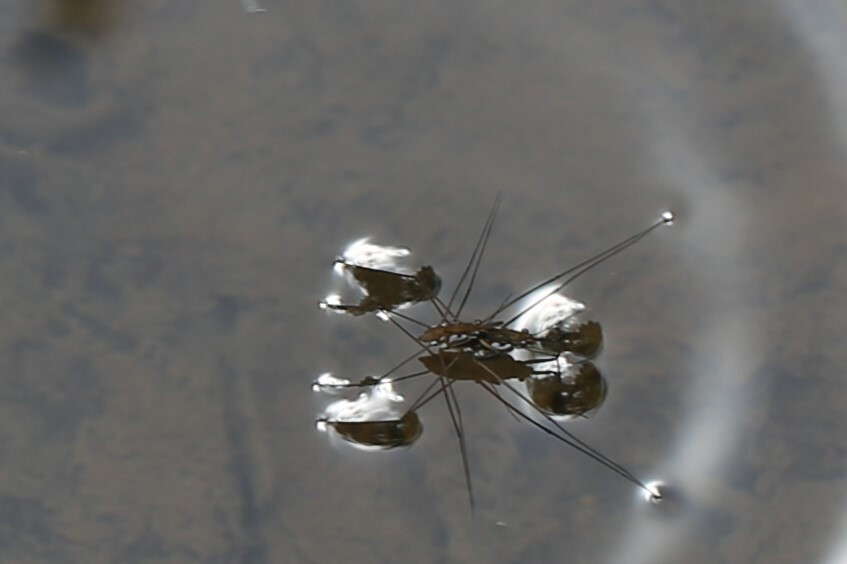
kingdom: Animalia
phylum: Arthropoda
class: Insecta
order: Hemiptera
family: Gerridae
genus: Tenagogerris
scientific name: Tenagogerris euphrosyne
